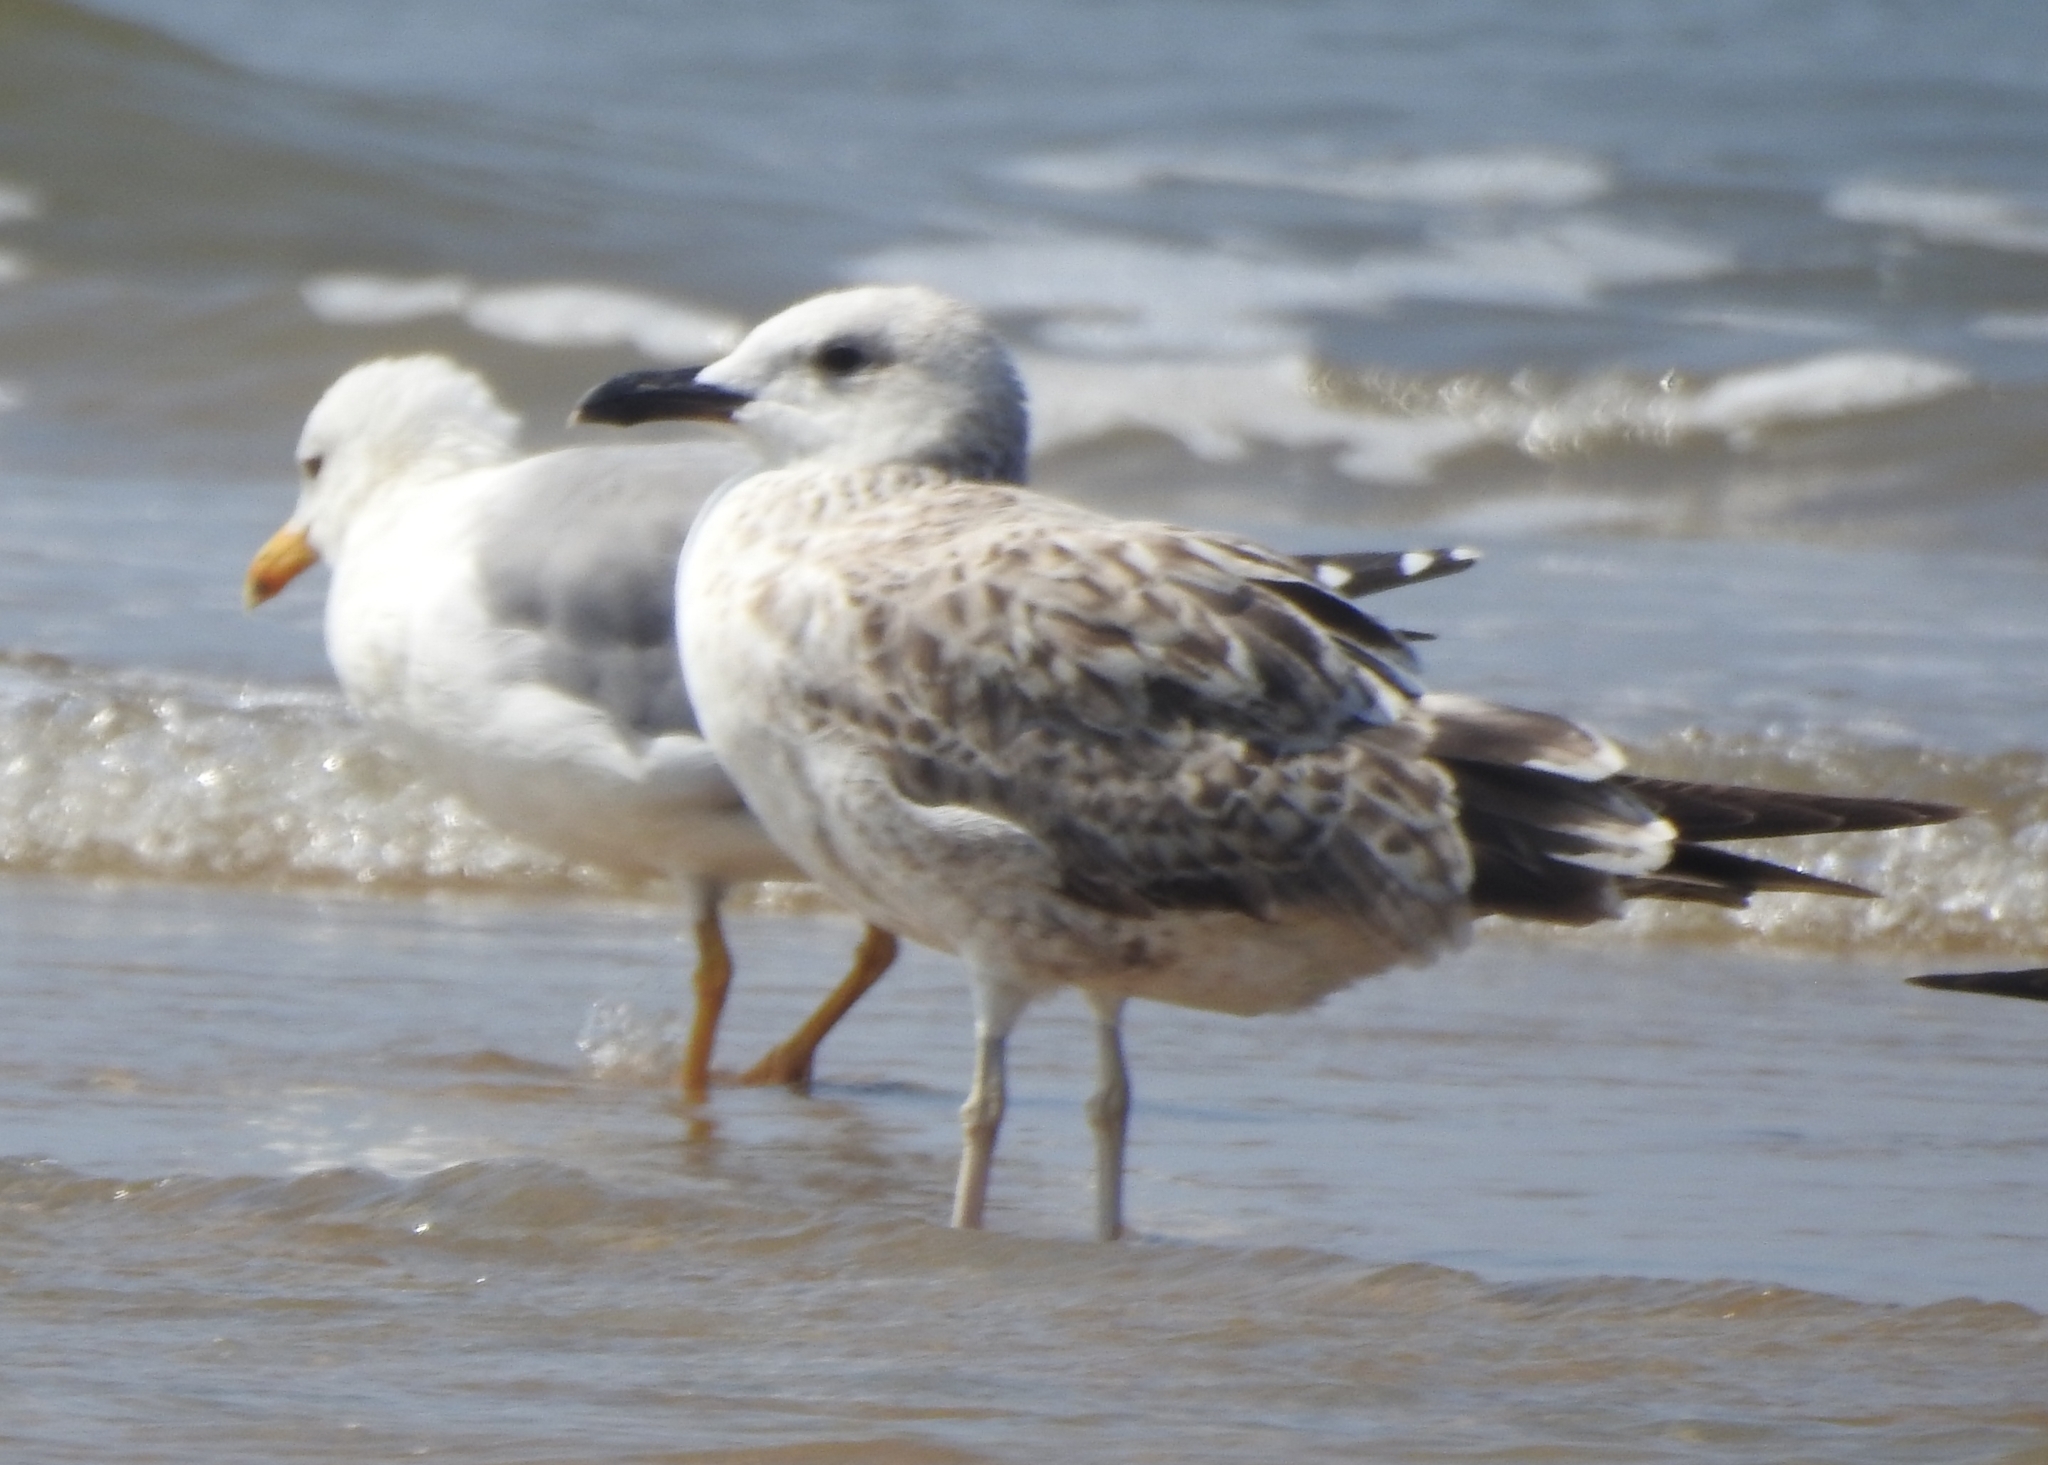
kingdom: Animalia
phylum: Chordata
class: Aves
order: Charadriiformes
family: Laridae
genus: Larus
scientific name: Larus fuscus
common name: Lesser black-backed gull
